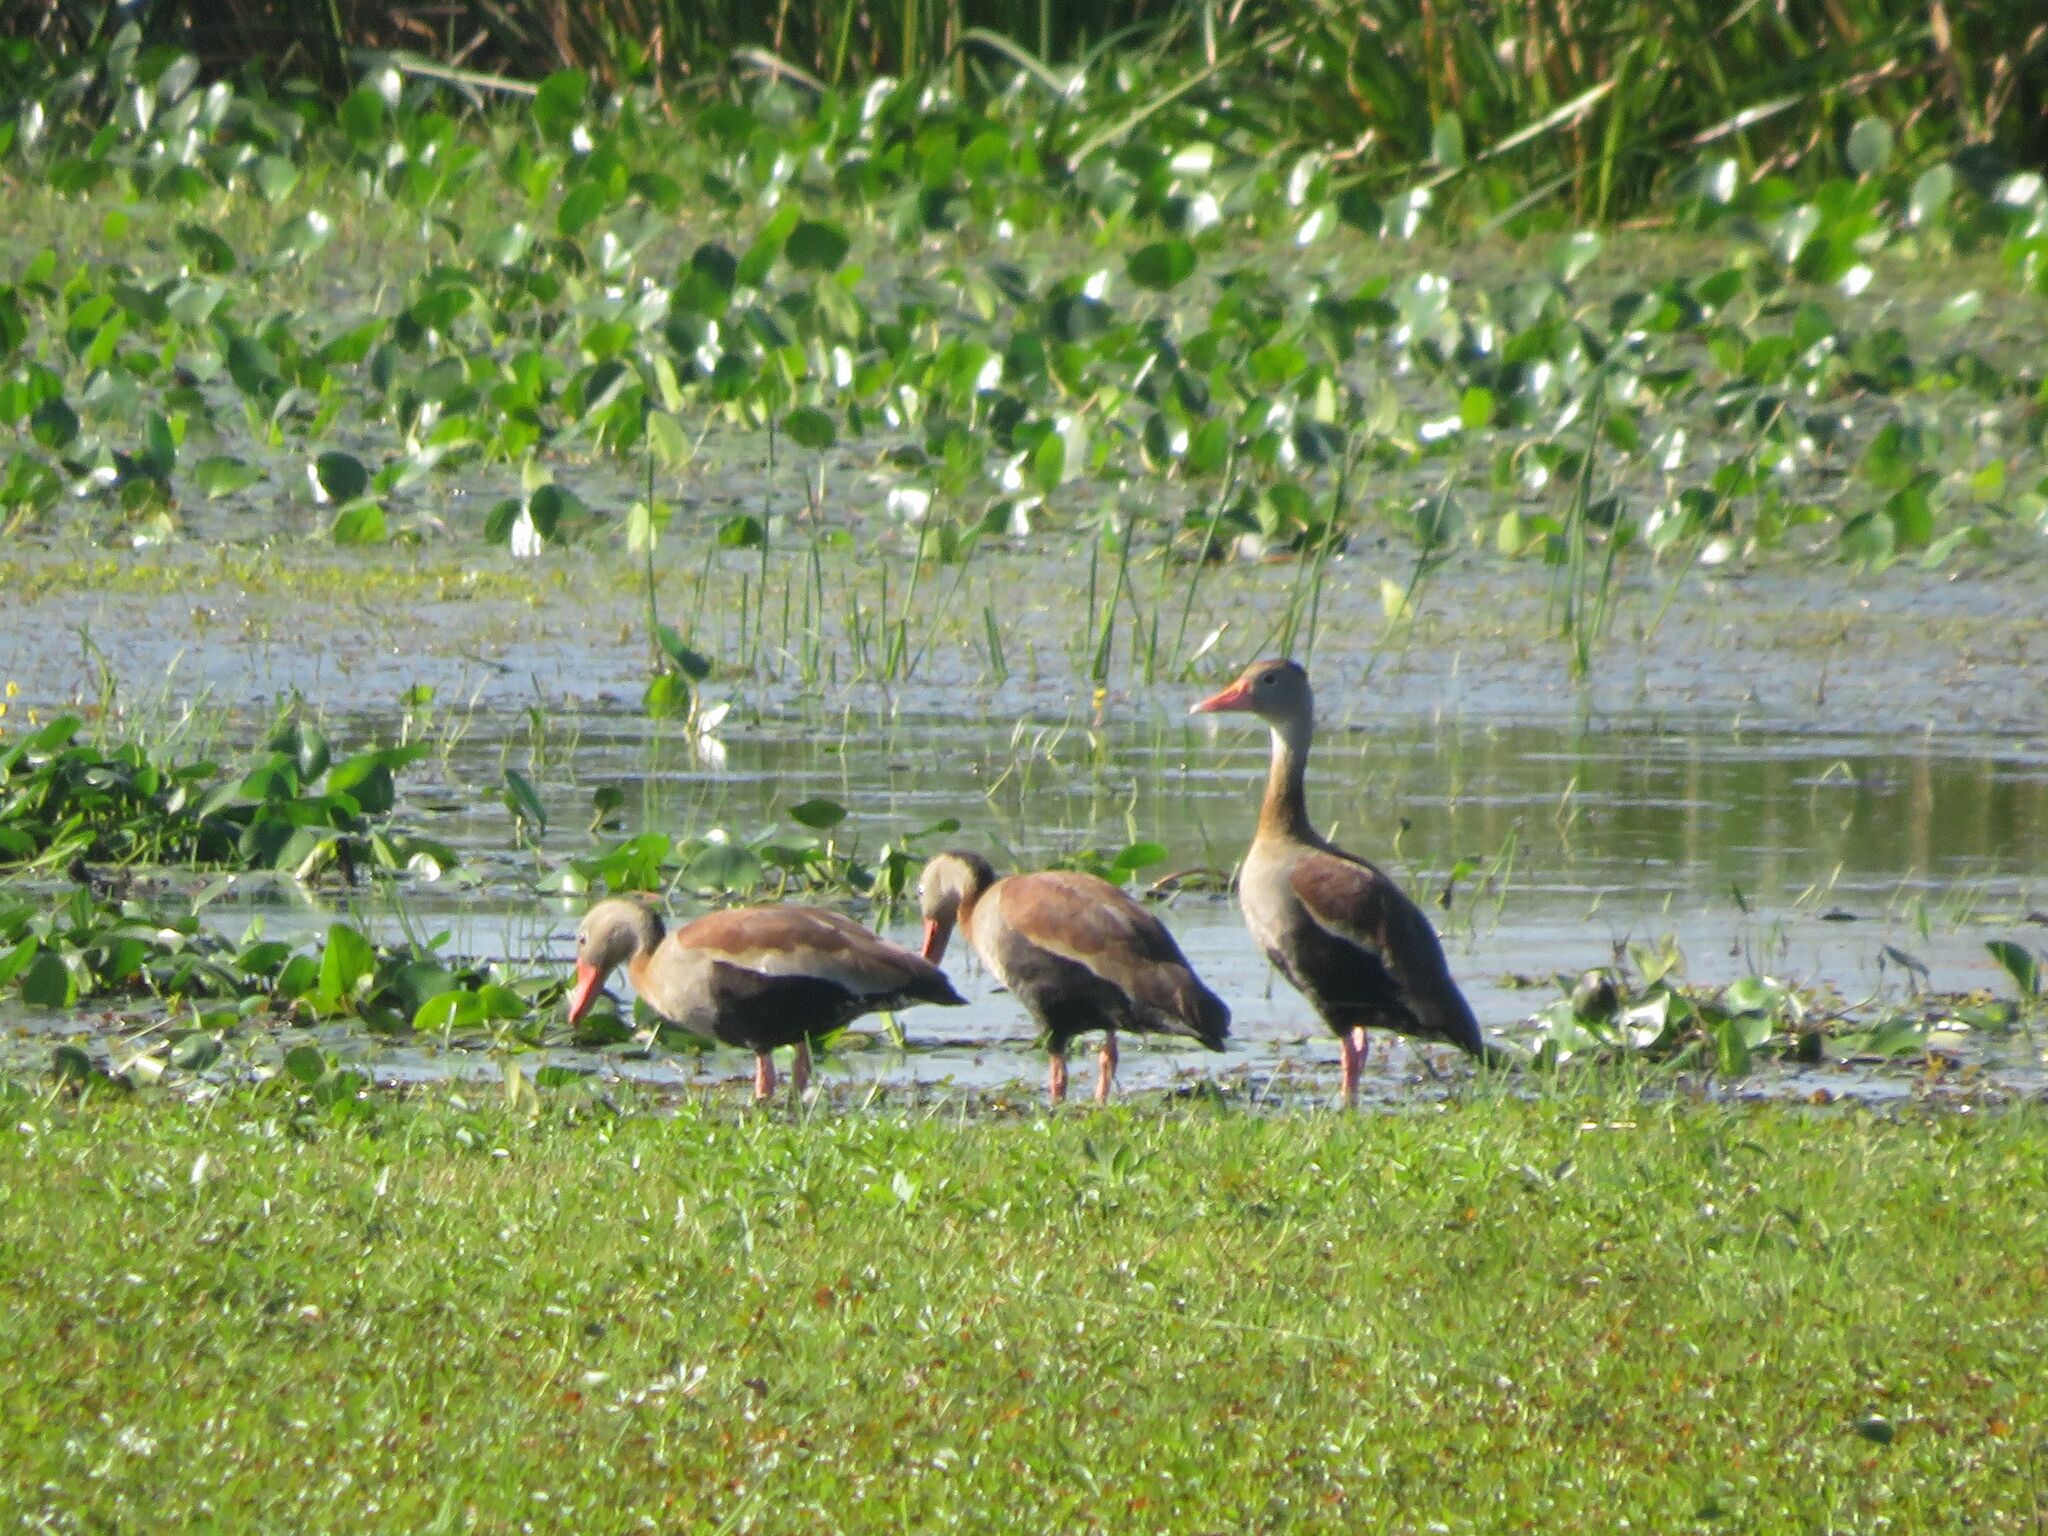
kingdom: Animalia
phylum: Chordata
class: Aves
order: Anseriformes
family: Anatidae
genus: Dendrocygna
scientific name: Dendrocygna autumnalis
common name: Black-bellied whistling duck
